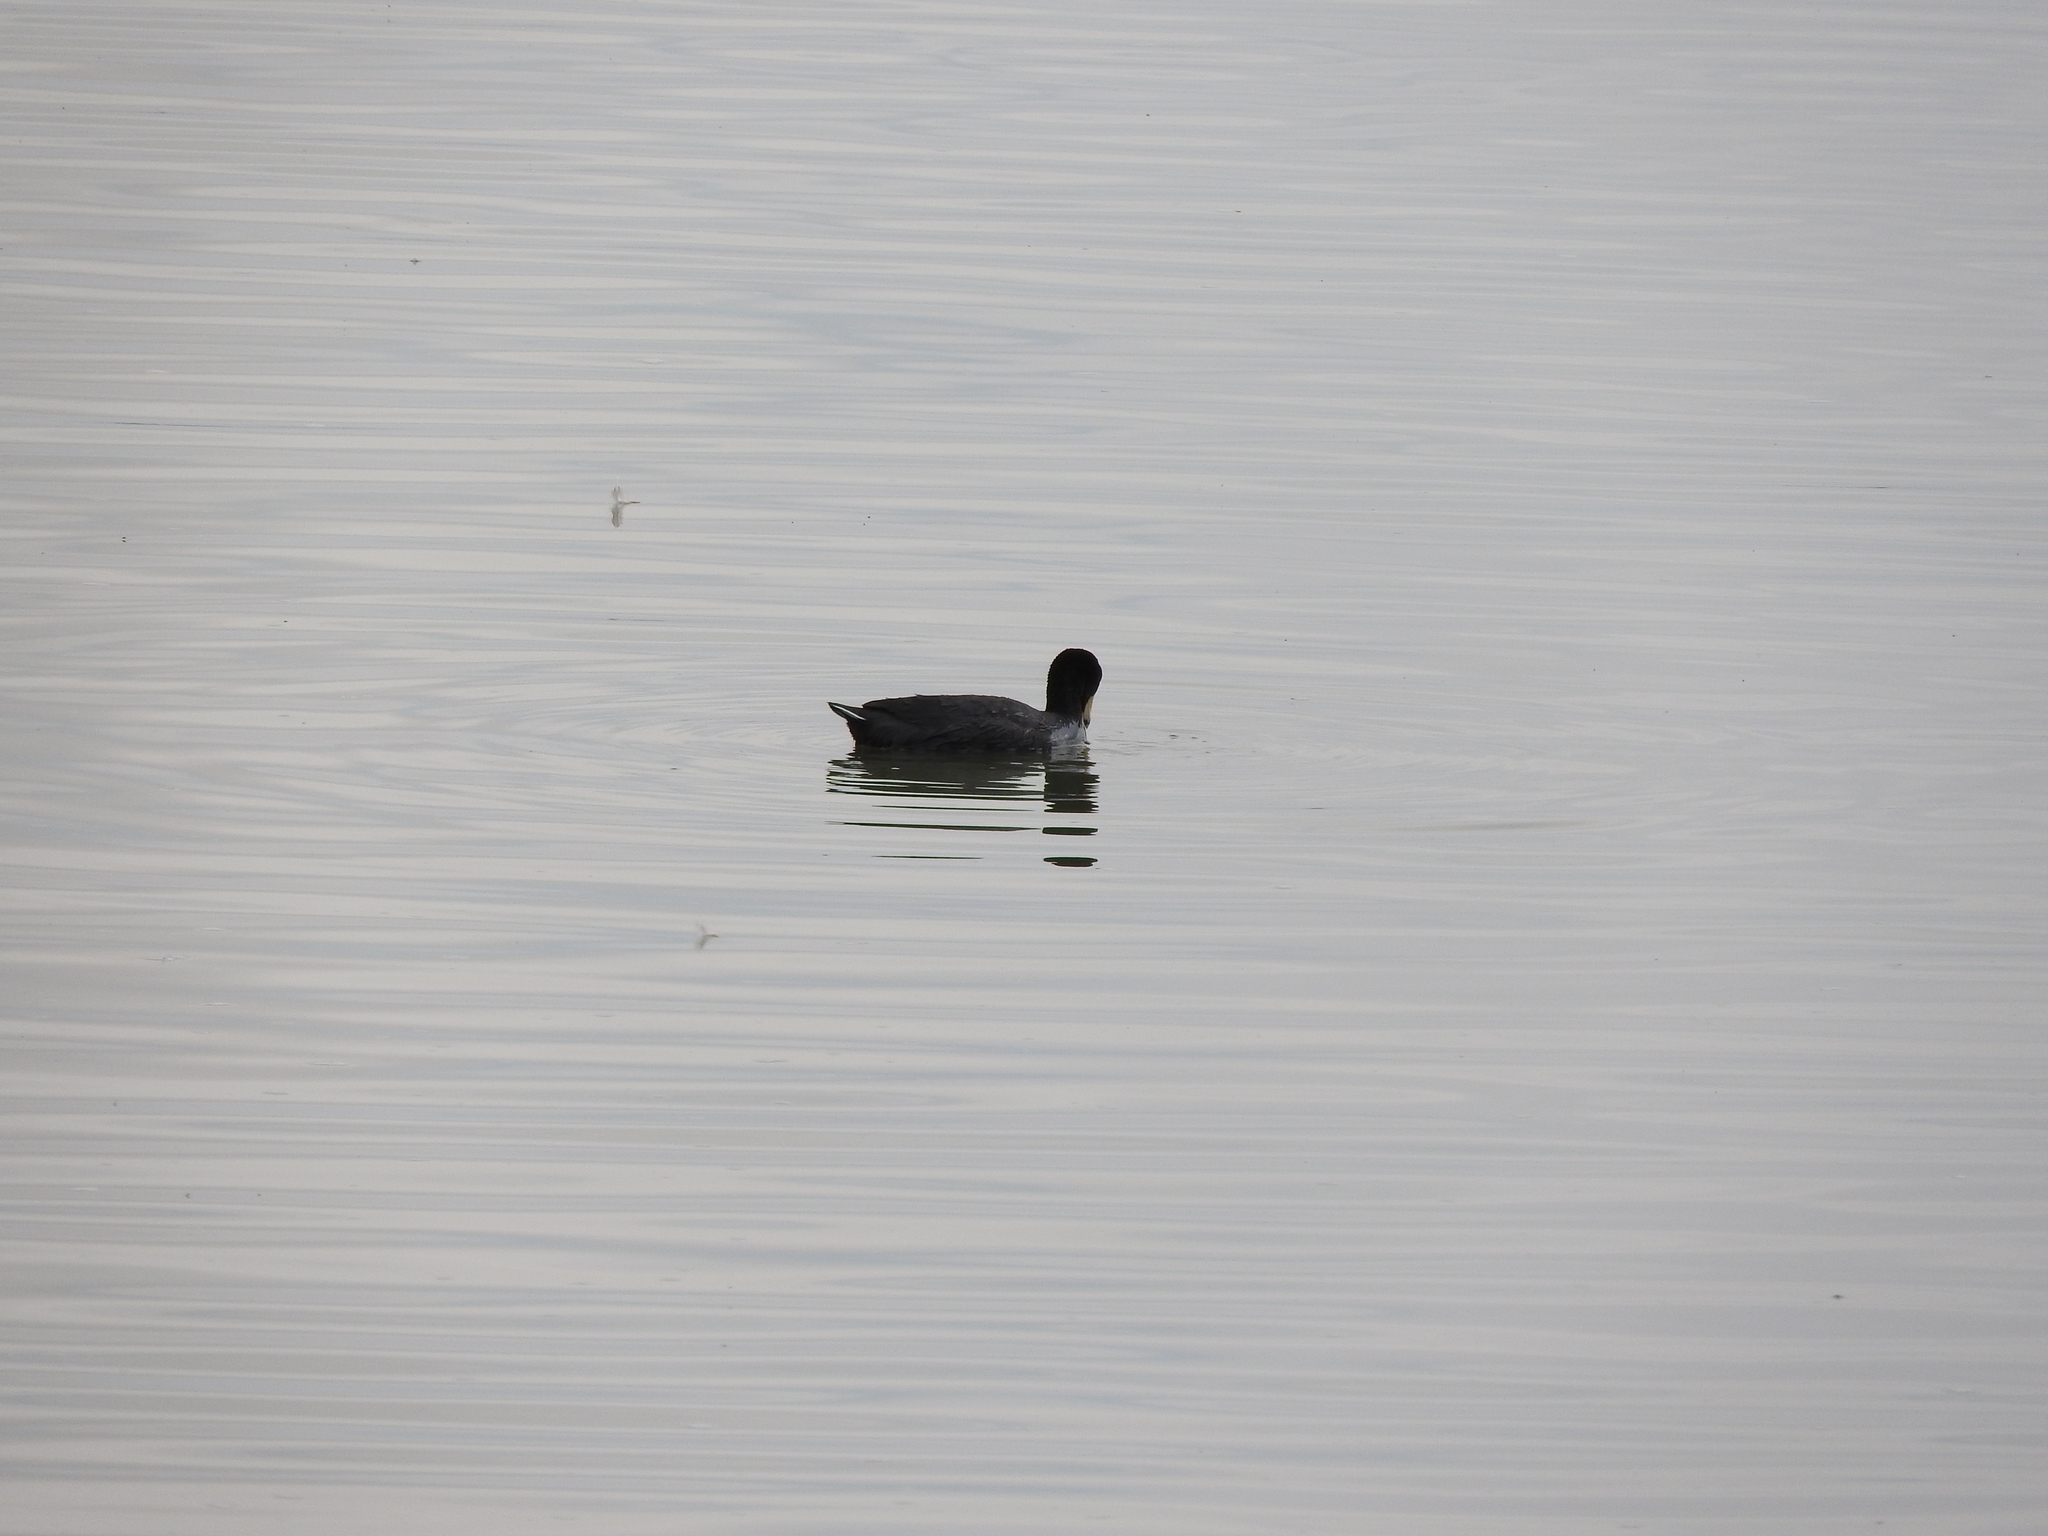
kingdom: Animalia
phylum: Chordata
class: Aves
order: Gruiformes
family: Rallidae
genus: Fulica
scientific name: Fulica americana
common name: American coot
